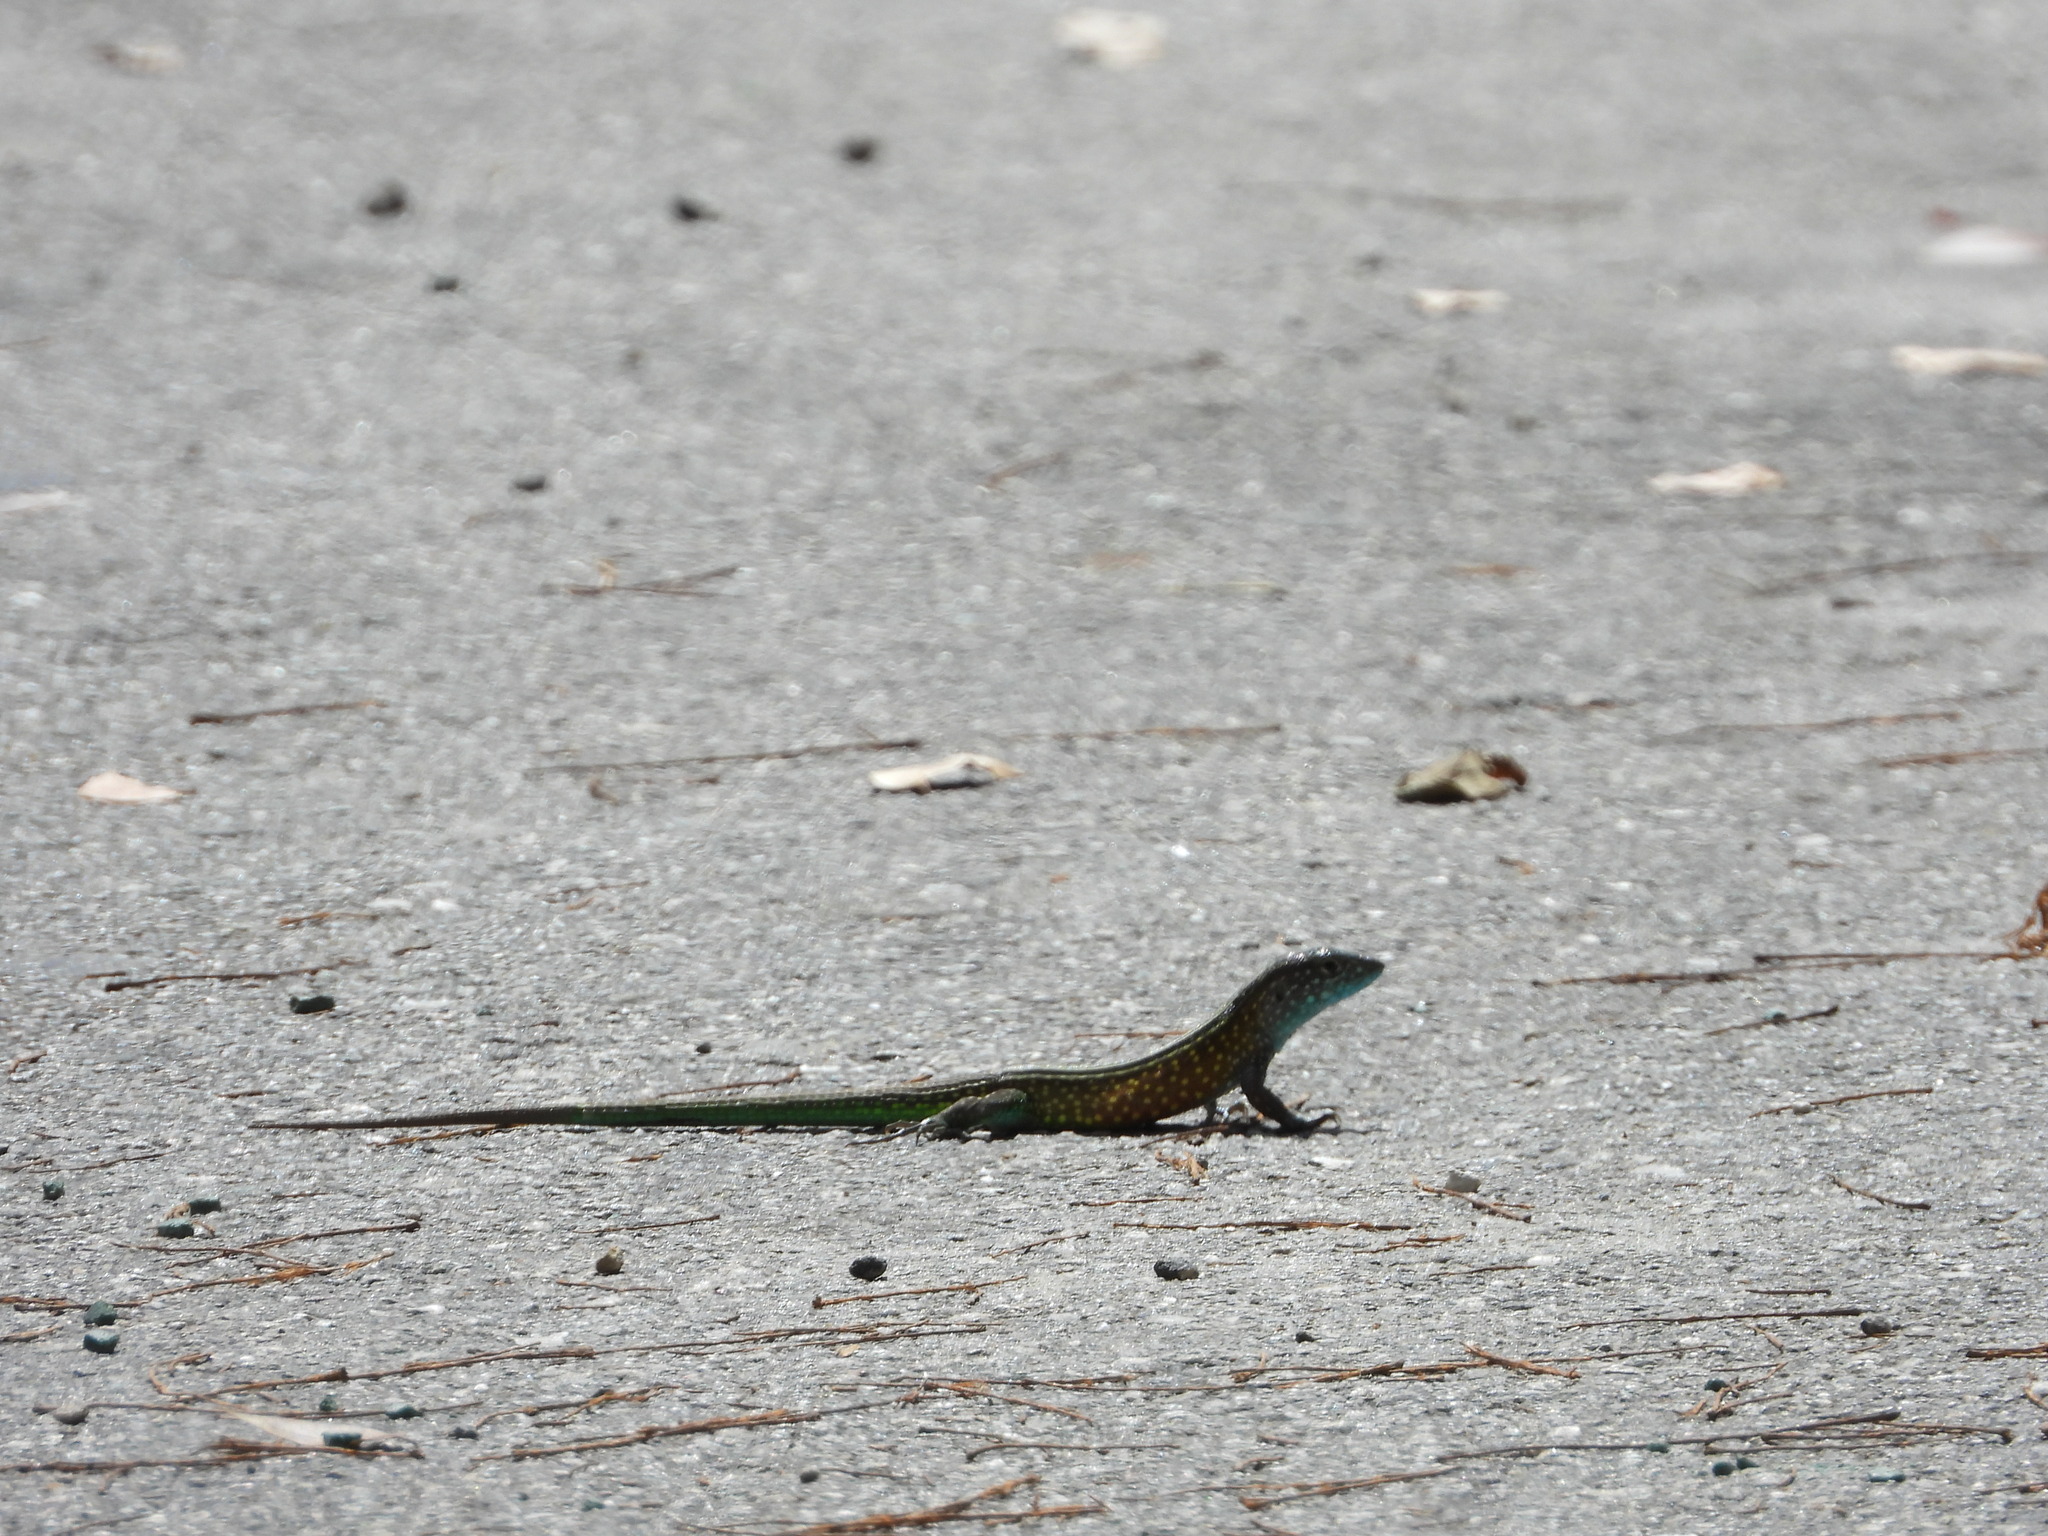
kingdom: Animalia
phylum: Chordata
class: Squamata
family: Teiidae
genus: Cnemidophorus
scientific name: Cnemidophorus lemniscatus
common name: Rainbow whiptail
